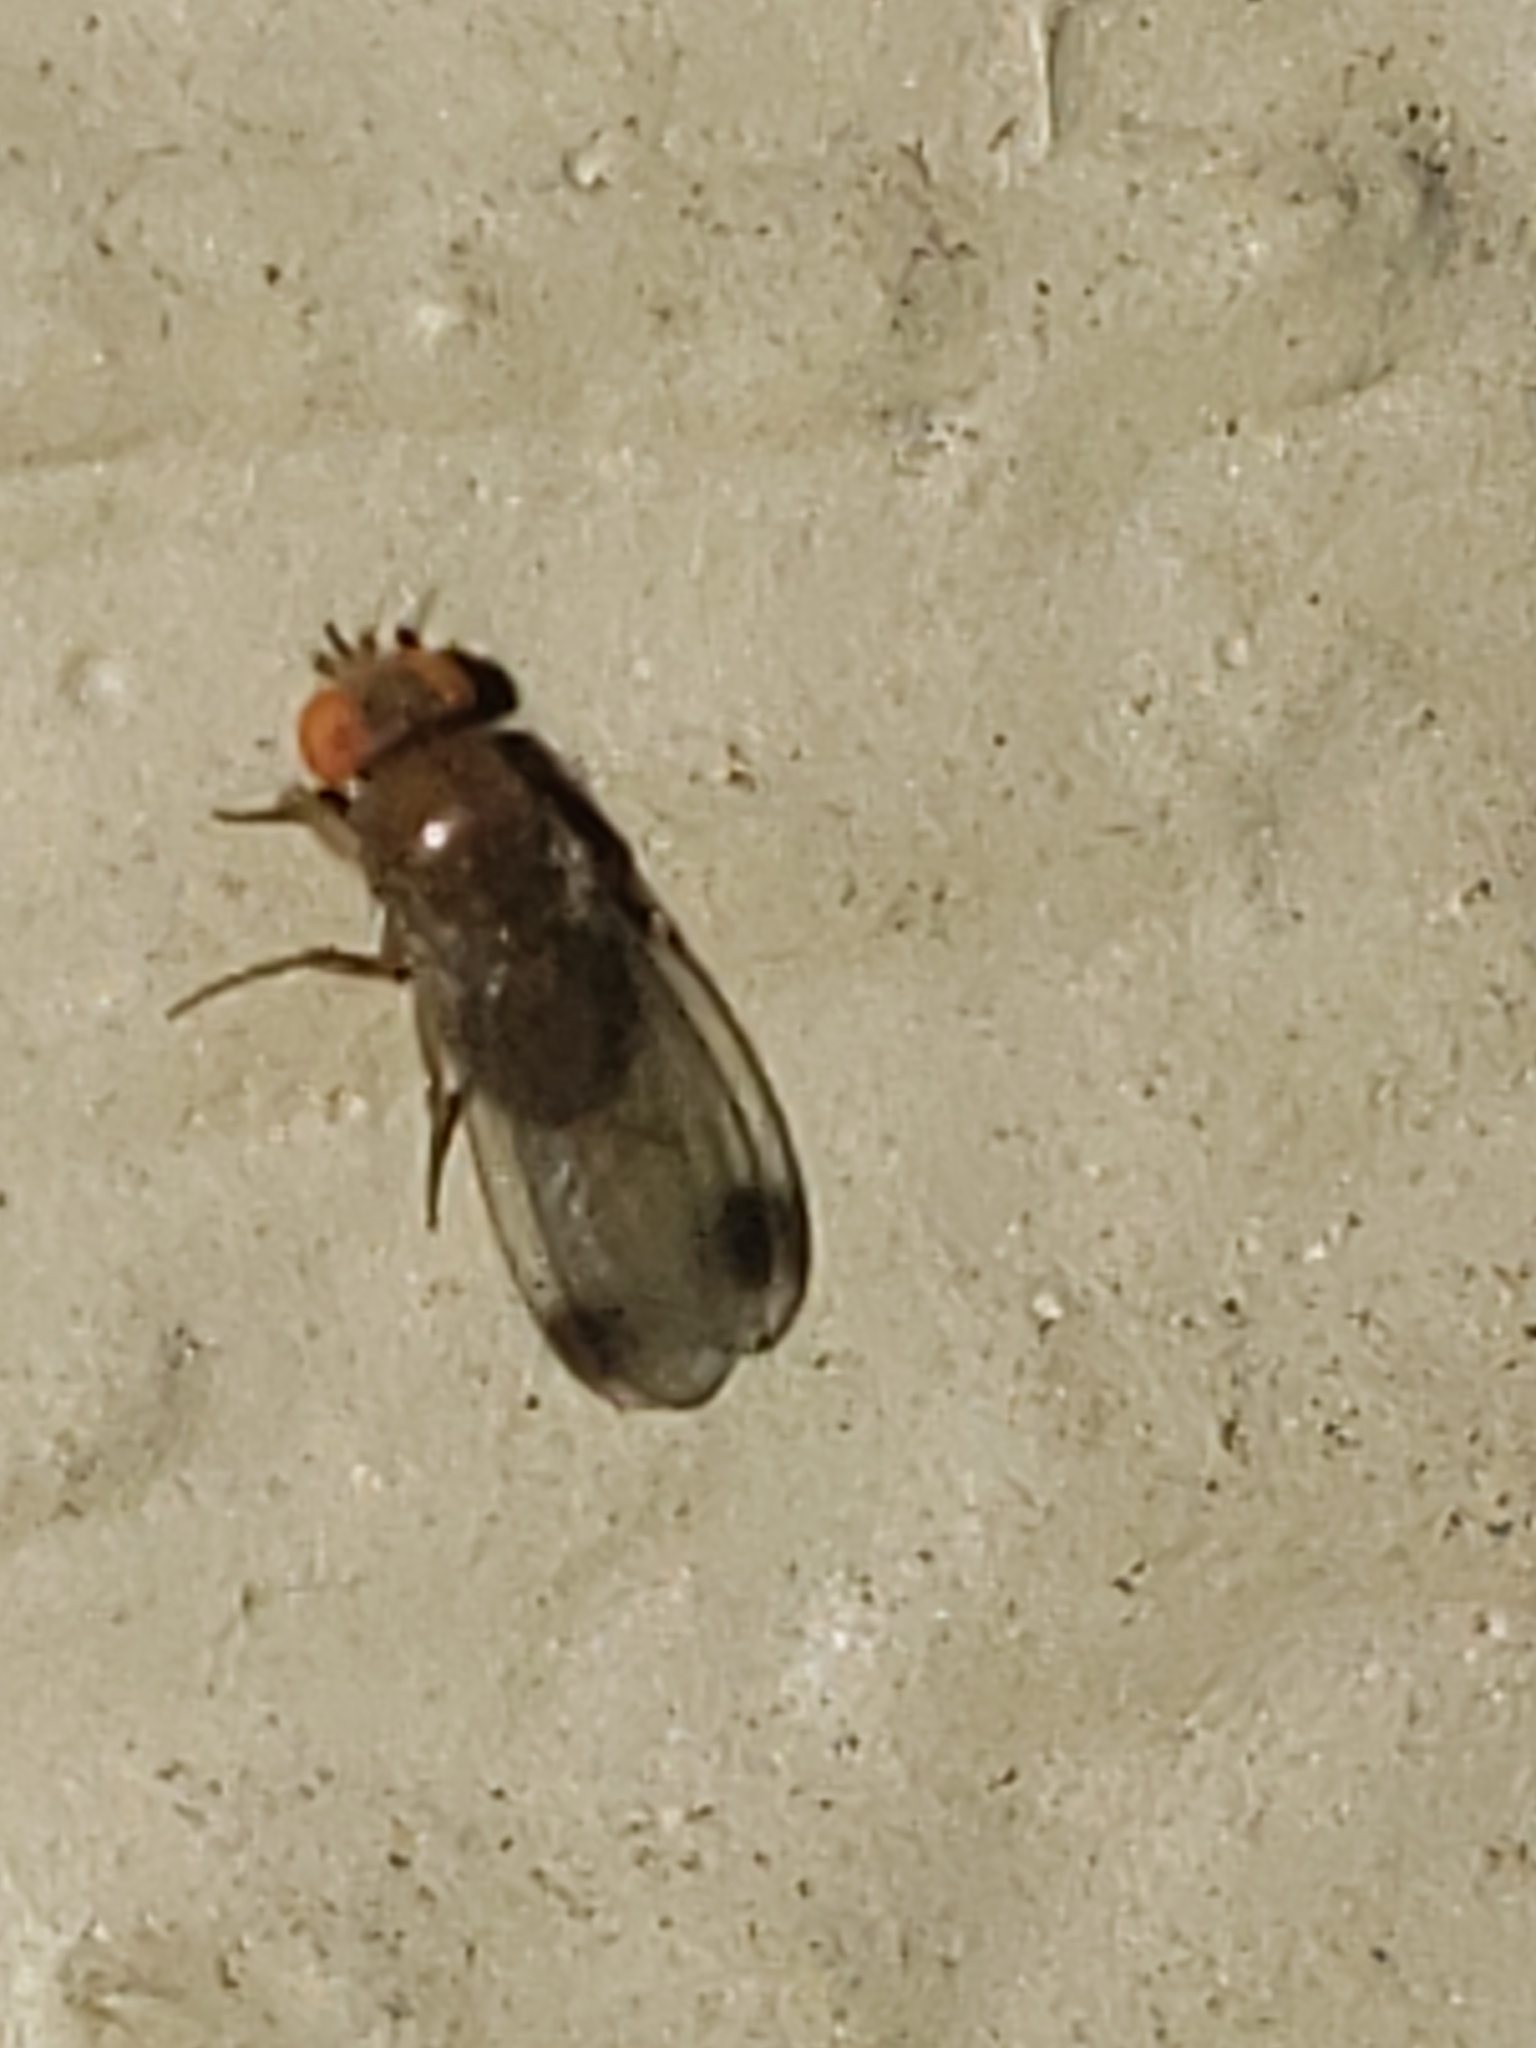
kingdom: Animalia
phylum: Arthropoda
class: Insecta
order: Diptera
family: Drosophilidae
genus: Drosophila
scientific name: Drosophila suzukii
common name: Spotted-wing drosophila
